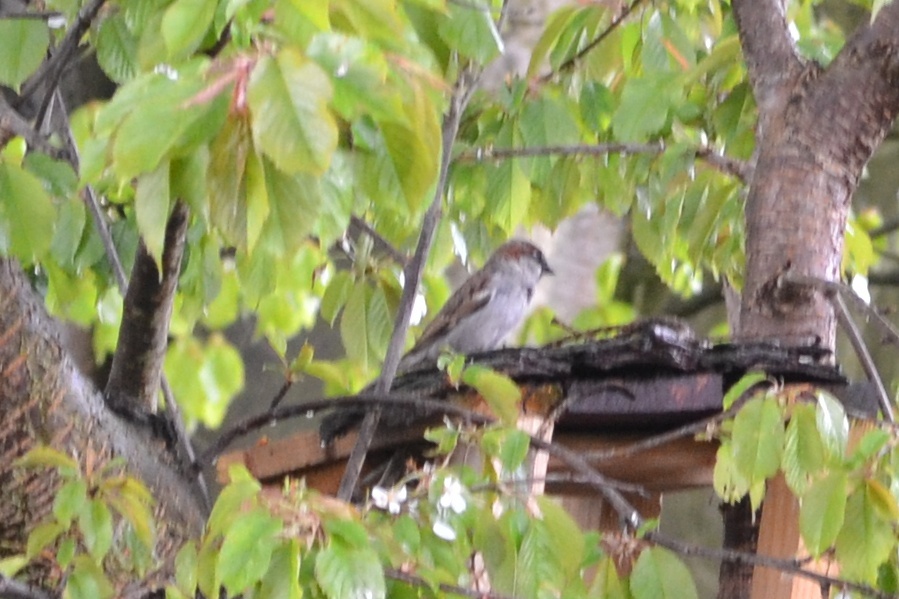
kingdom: Animalia
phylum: Chordata
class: Aves
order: Passeriformes
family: Passeridae
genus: Passer
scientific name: Passer domesticus
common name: House sparrow
